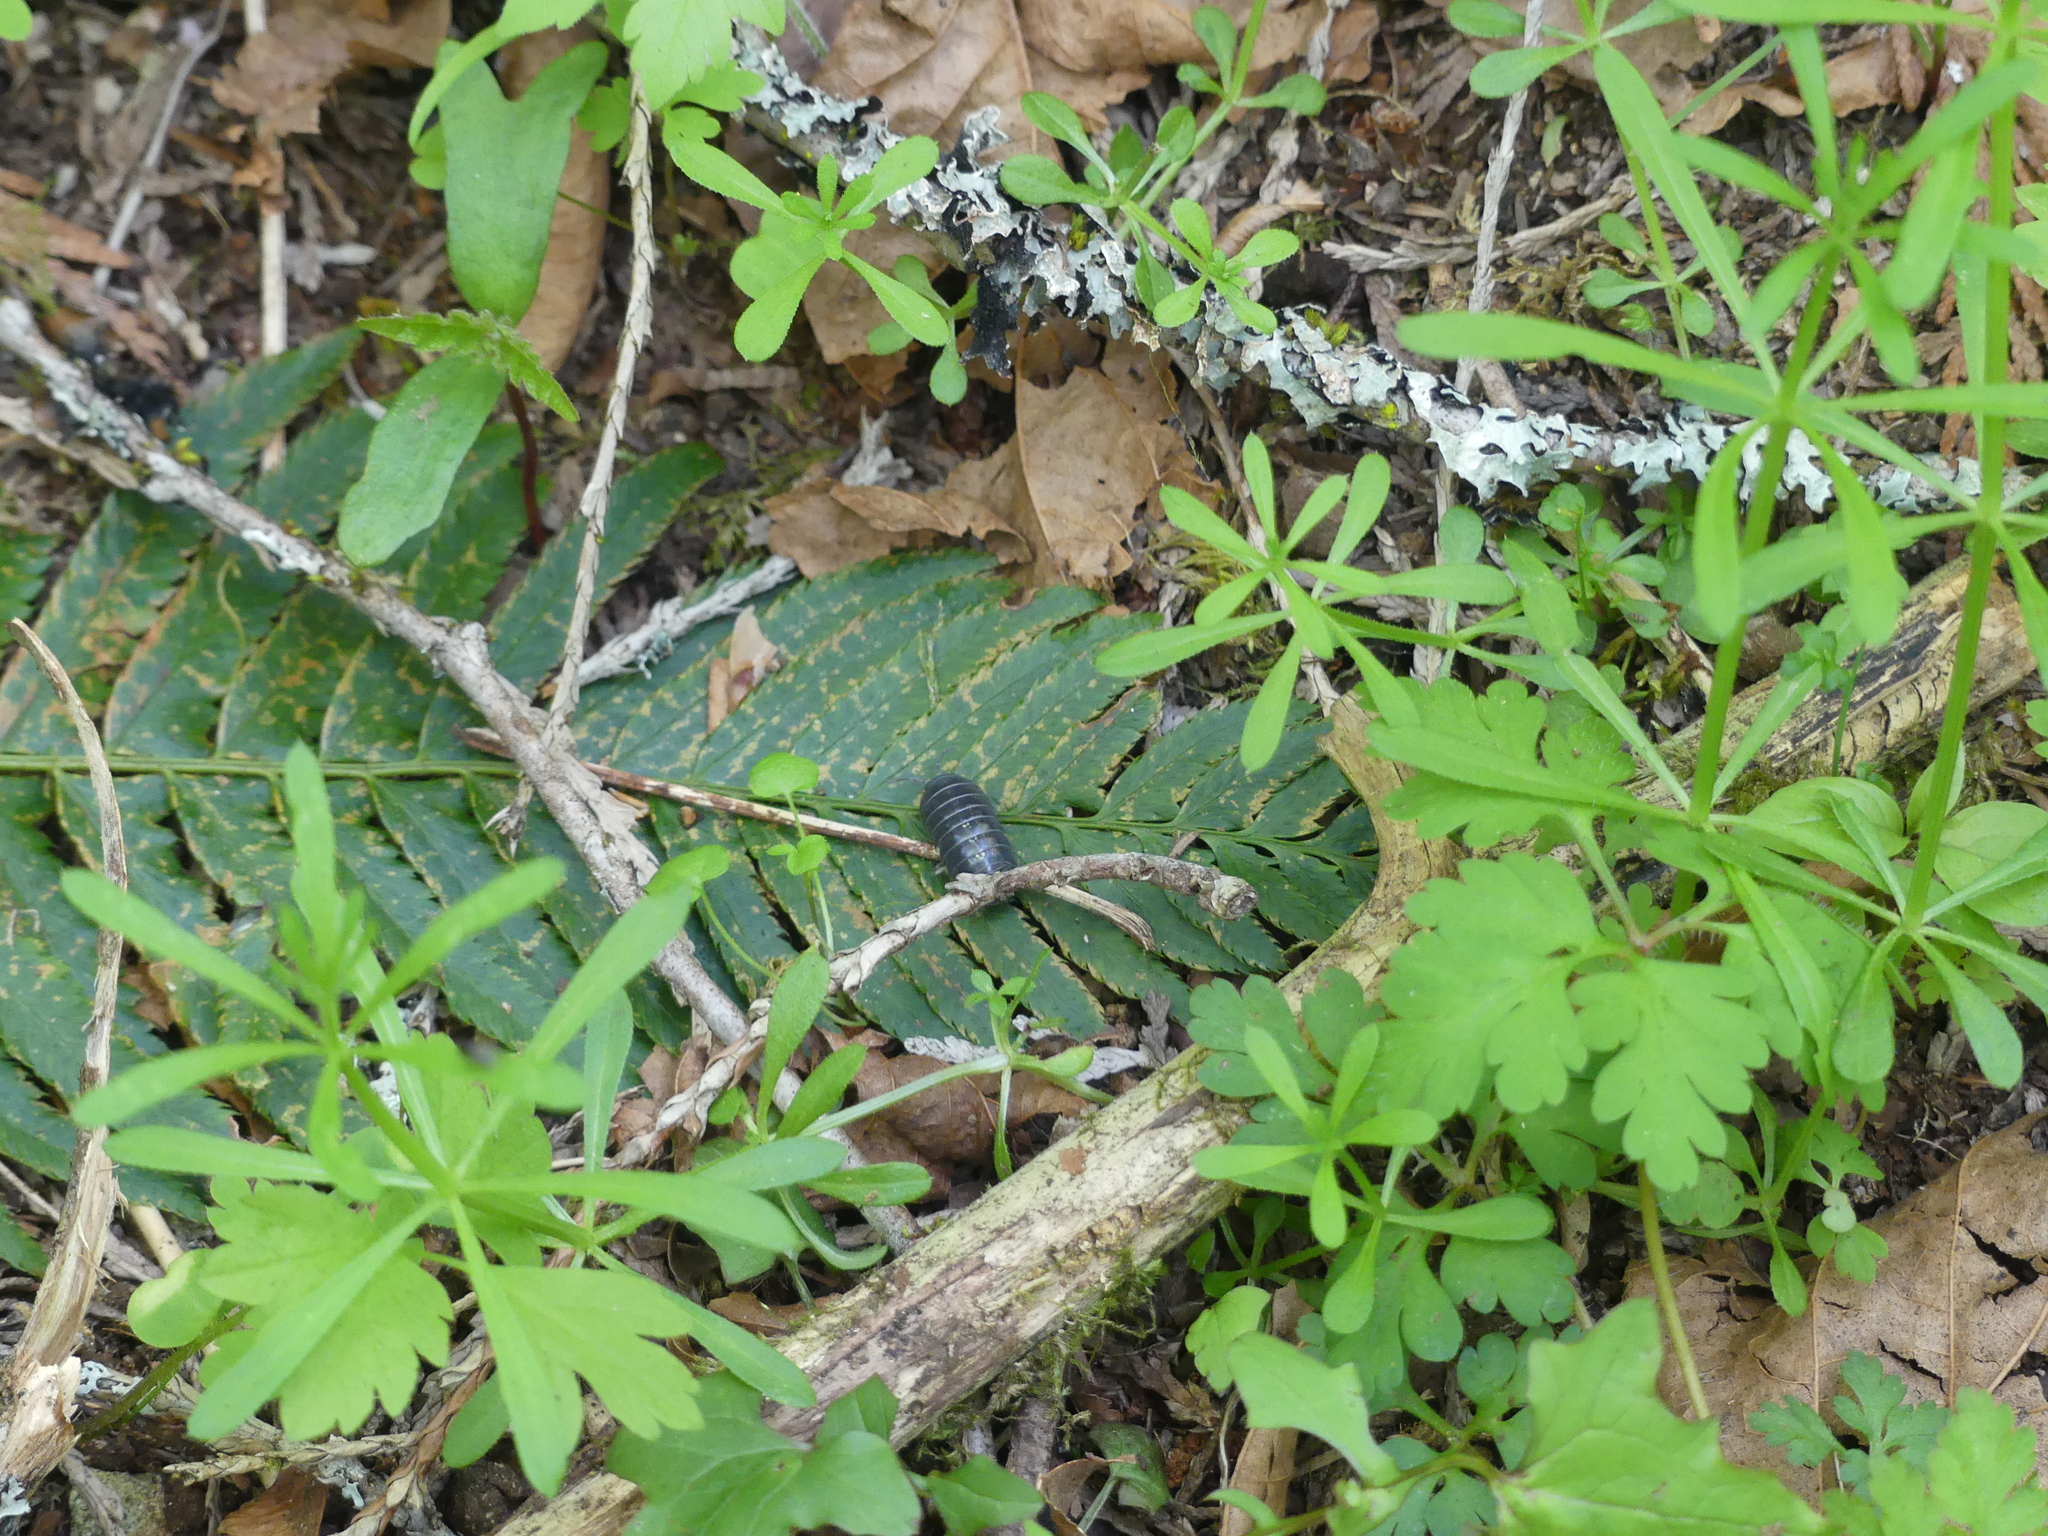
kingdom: Animalia
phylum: Arthropoda
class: Malacostraca
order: Isopoda
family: Armadillidiidae
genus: Armadillidium
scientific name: Armadillidium vulgare
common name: Common pill woodlouse
